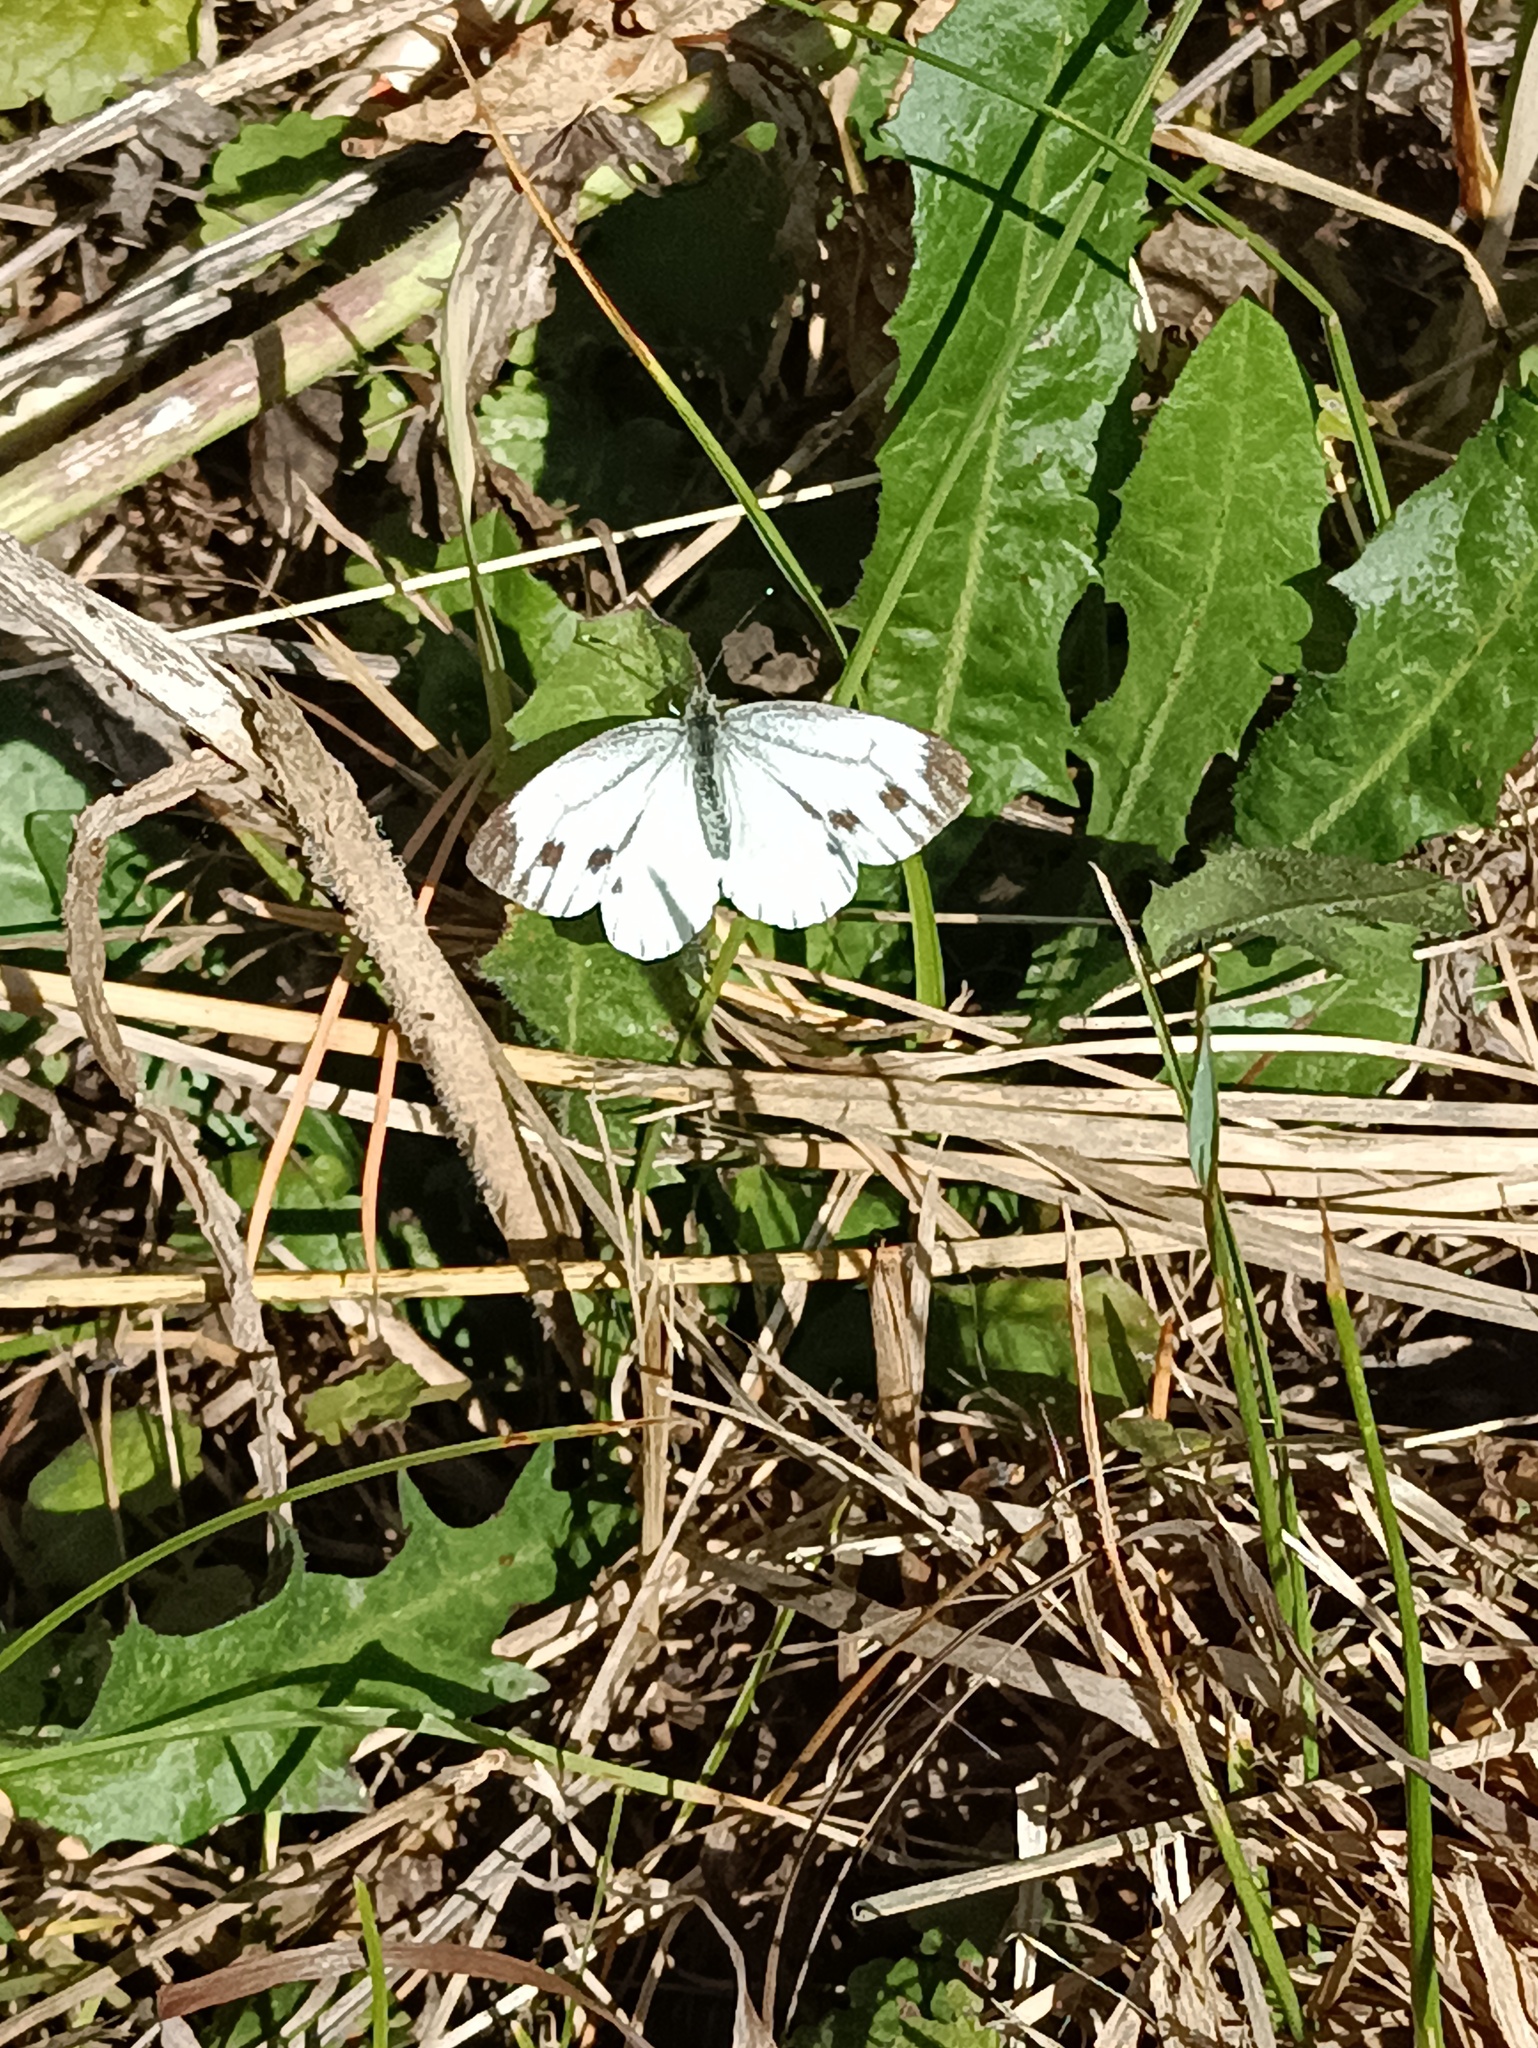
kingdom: Animalia
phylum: Arthropoda
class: Insecta
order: Lepidoptera
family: Pieridae
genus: Pieris
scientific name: Pieris napi
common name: Green-veined white
